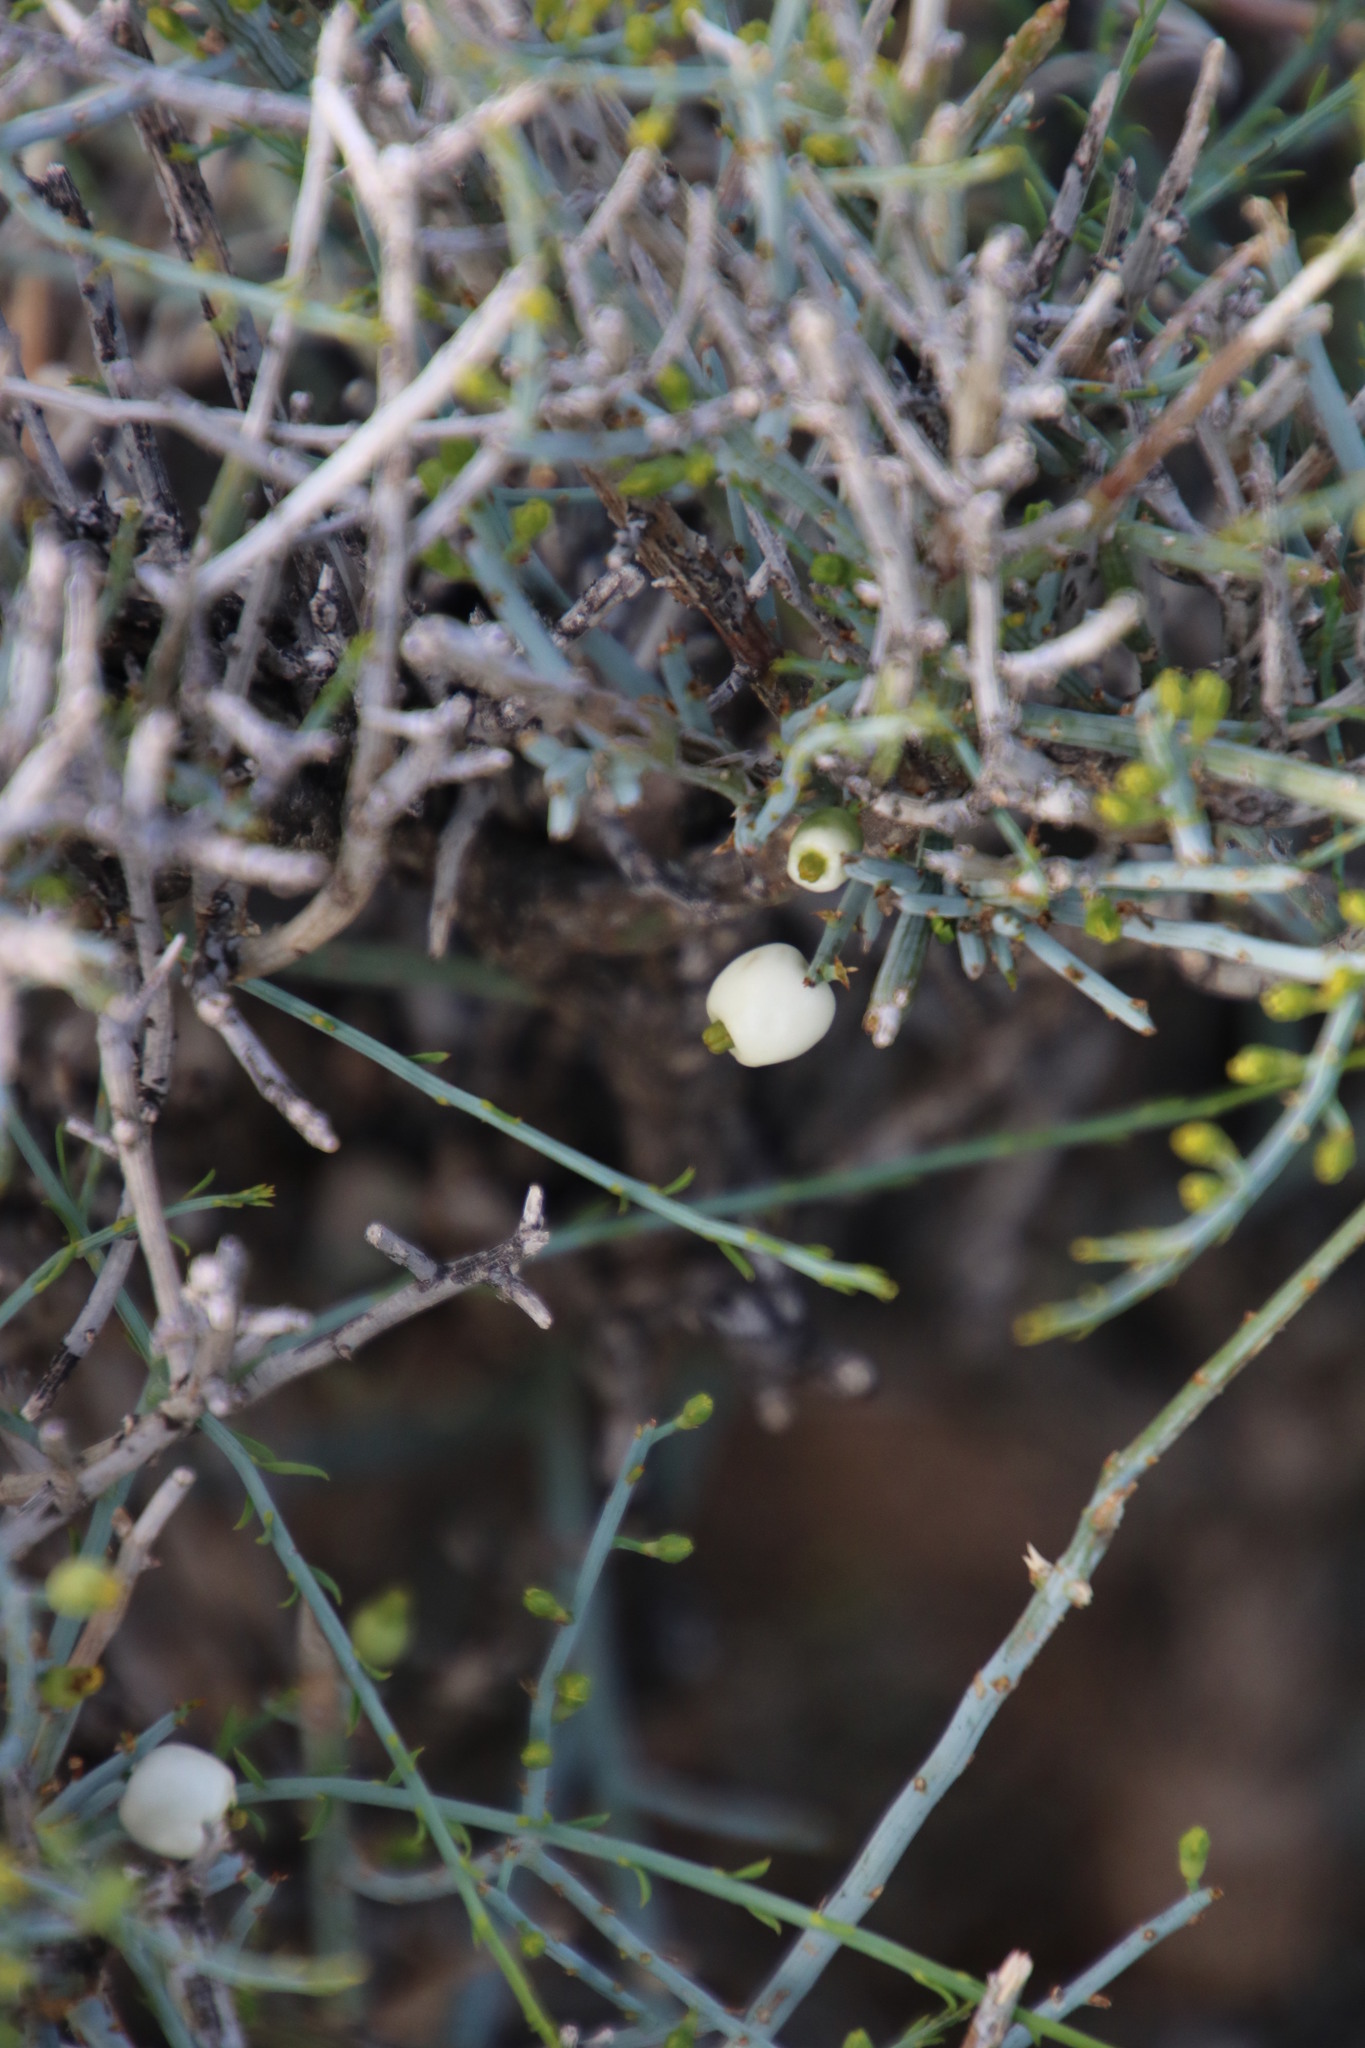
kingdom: Plantae
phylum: Tracheophyta
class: Magnoliopsida
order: Santalales
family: Thesiaceae
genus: Lacomucinaea
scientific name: Lacomucinaea lineata
